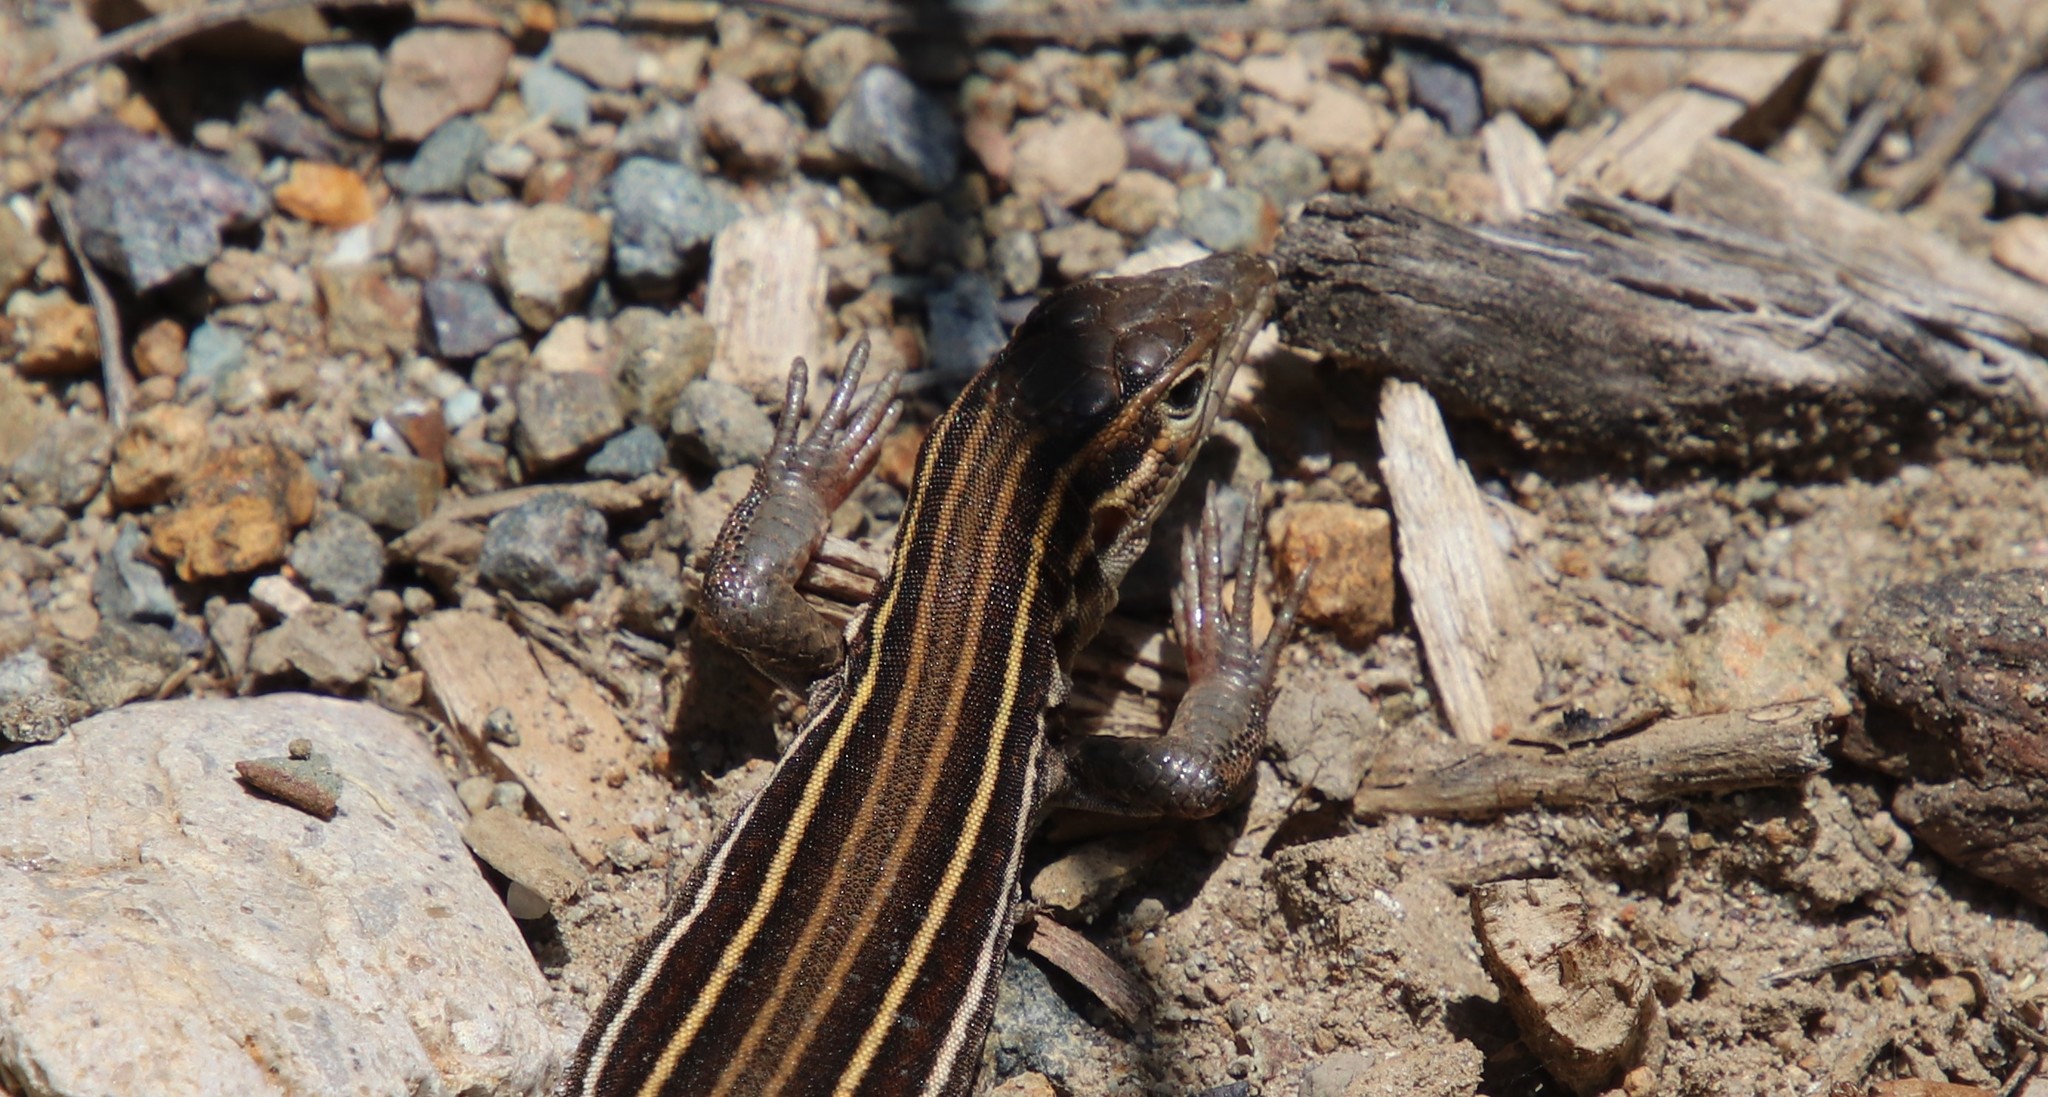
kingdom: Animalia
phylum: Chordata
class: Squamata
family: Teiidae
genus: Aspidoscelis
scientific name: Aspidoscelis hyperythrus
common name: Orange-throated race-runner
